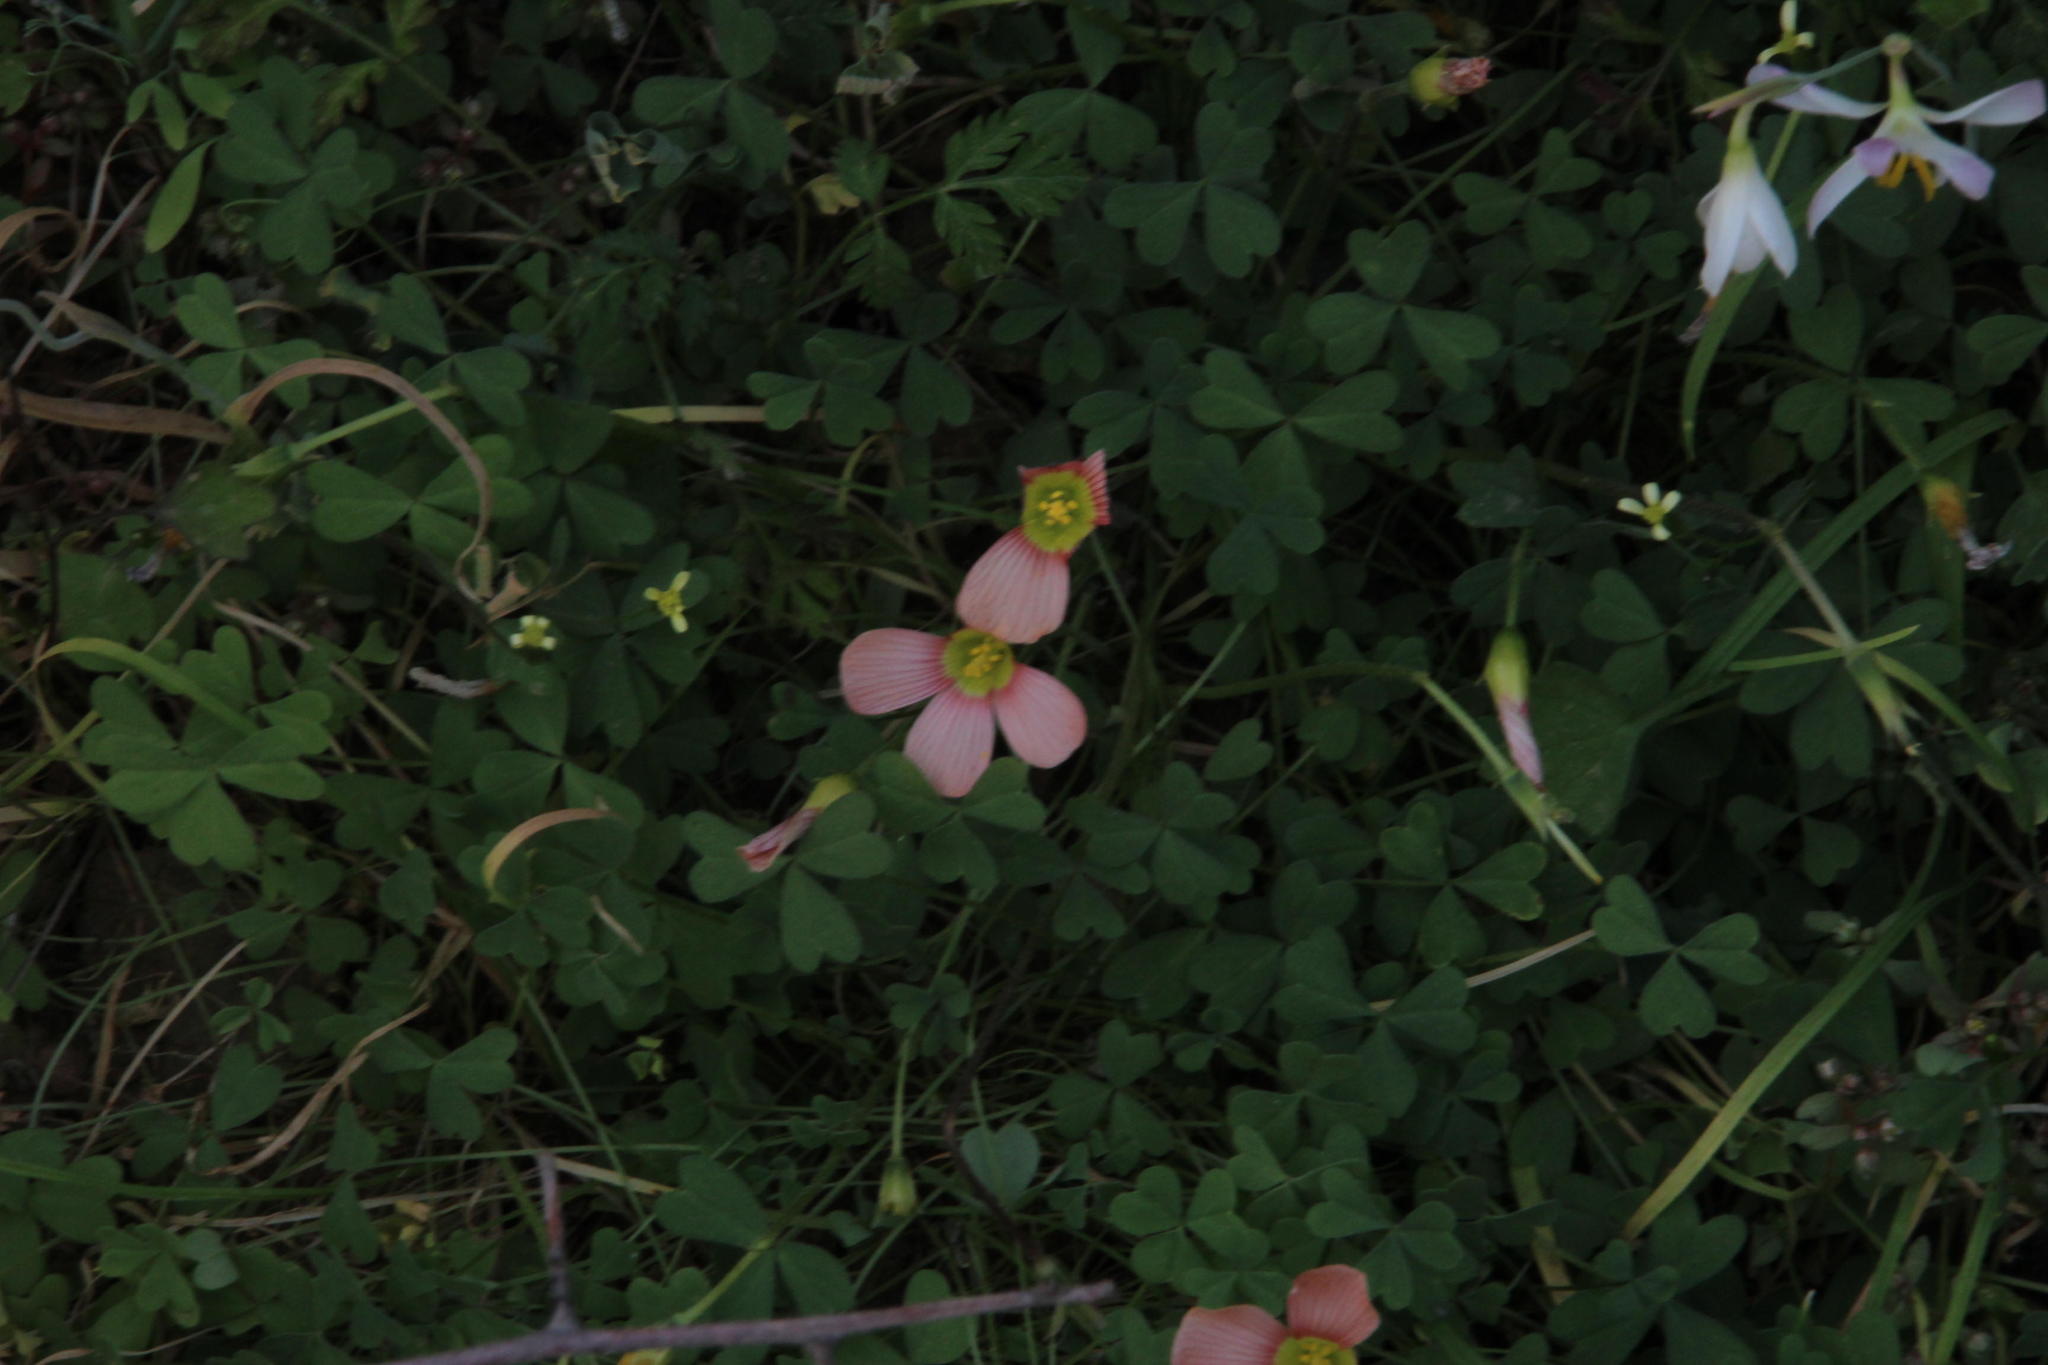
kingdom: Plantae
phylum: Tracheophyta
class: Magnoliopsida
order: Oxalidales
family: Oxalidaceae
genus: Oxalis
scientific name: Oxalis obtusa
